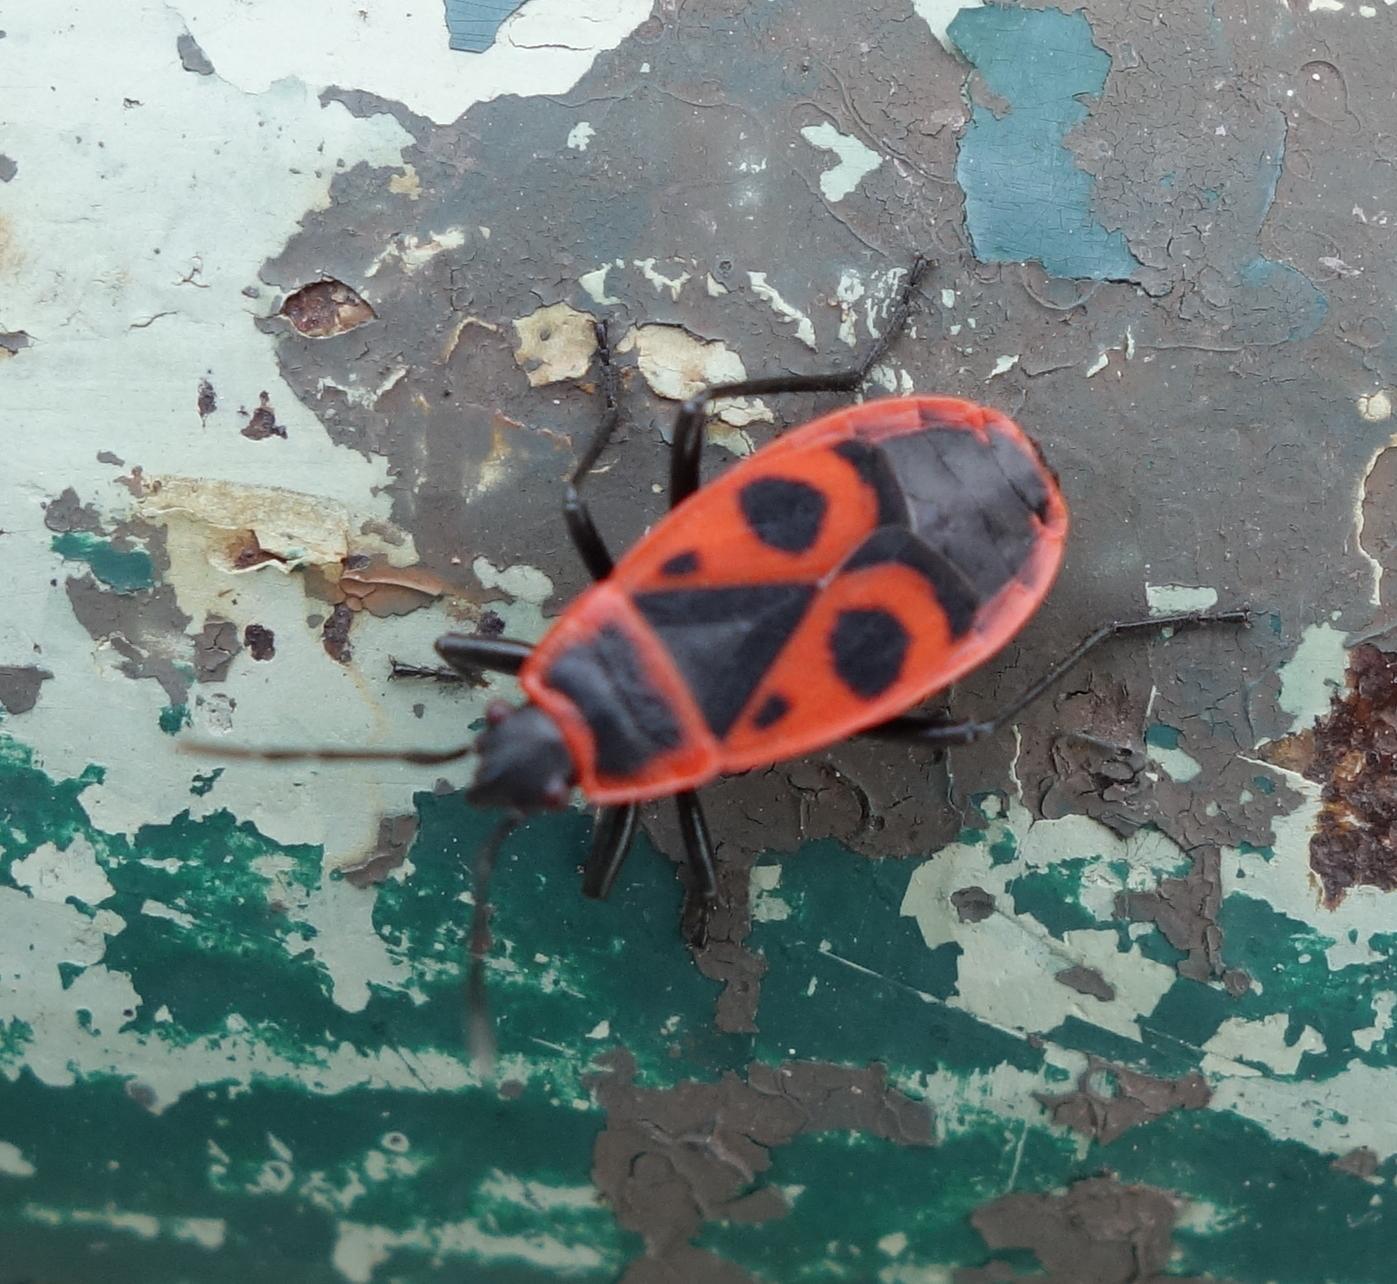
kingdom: Animalia
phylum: Arthropoda
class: Insecta
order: Hemiptera
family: Pyrrhocoridae
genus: Pyrrhocoris
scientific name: Pyrrhocoris apterus
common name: Firebug
